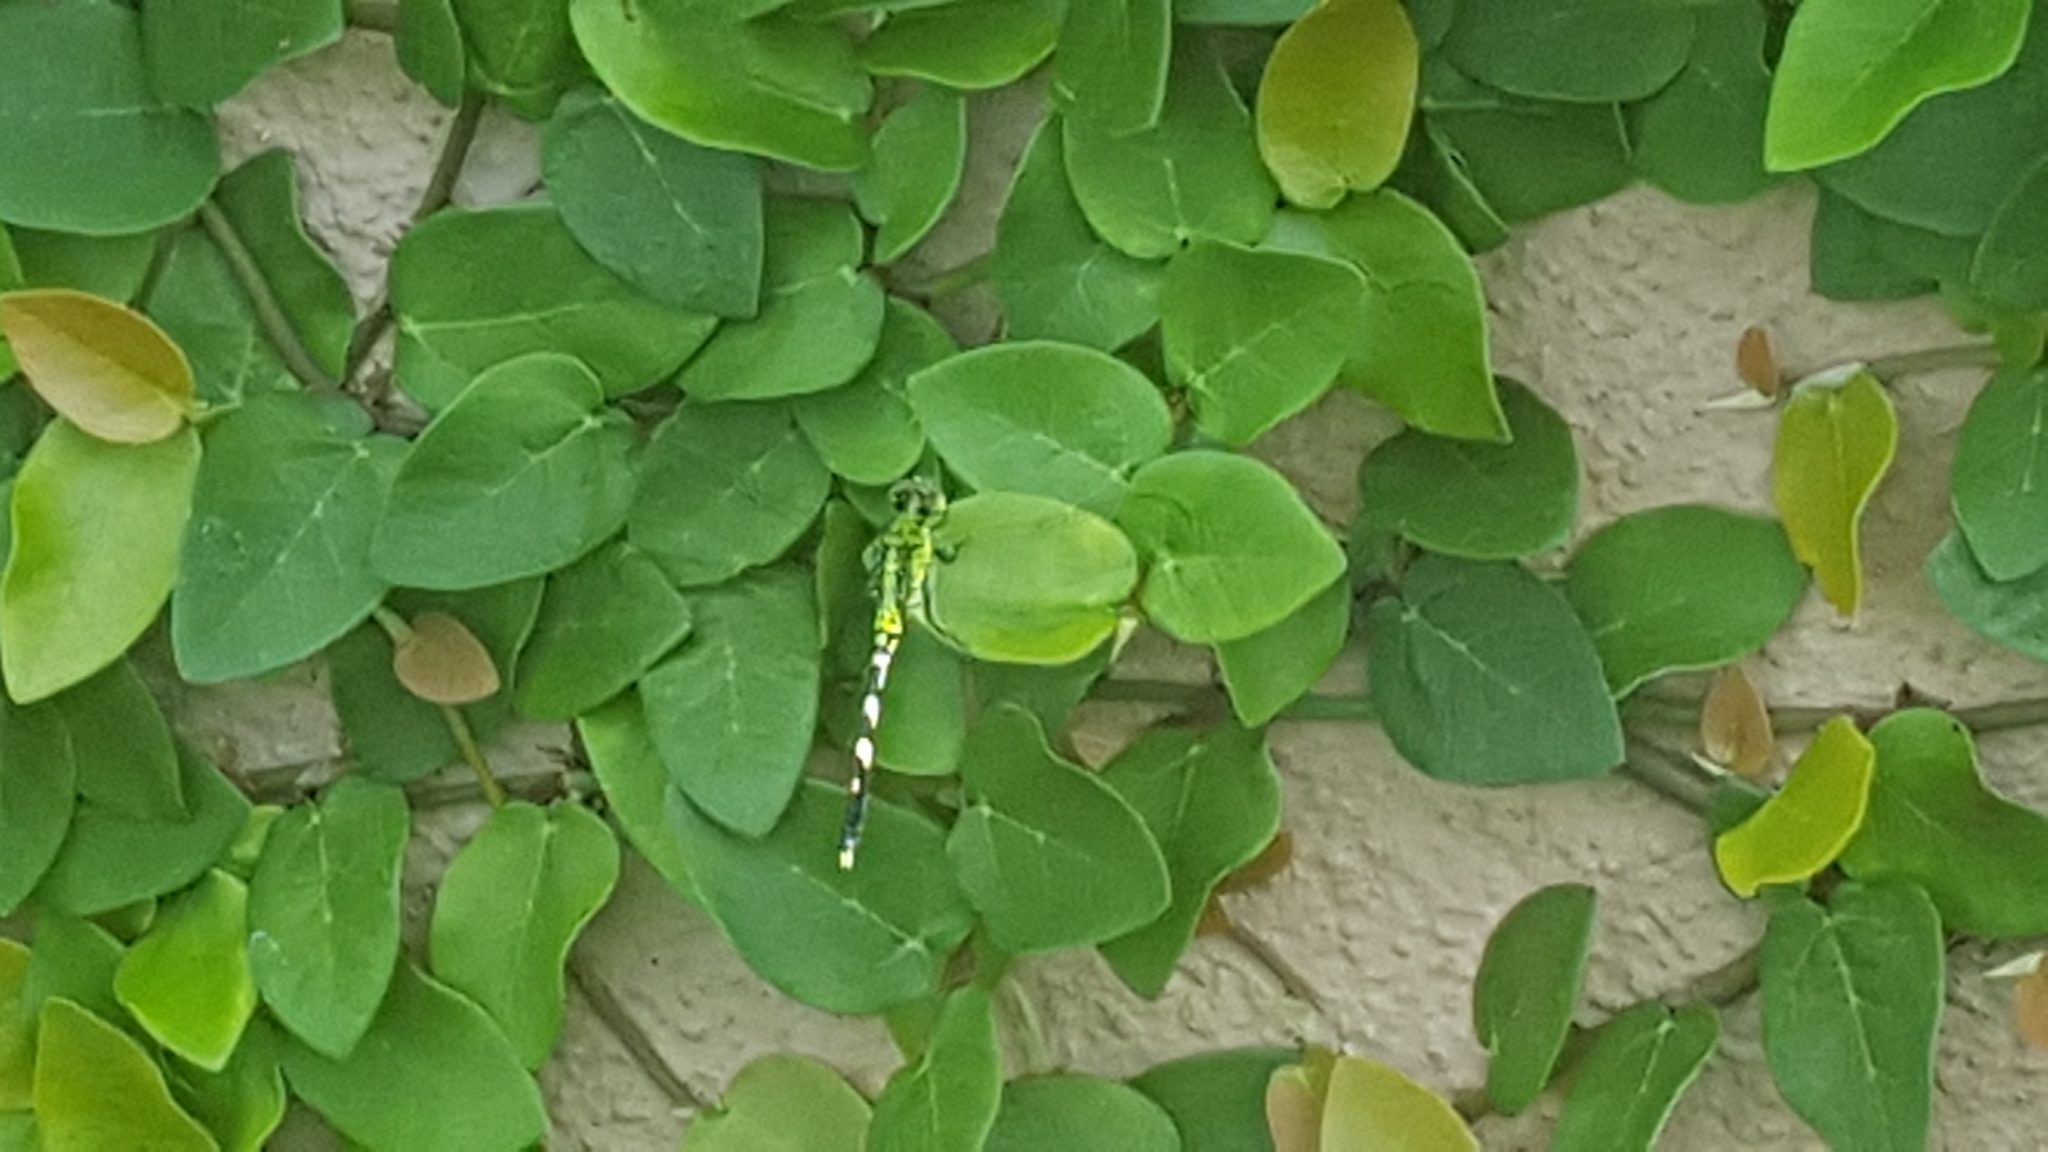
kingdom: Animalia
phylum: Arthropoda
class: Insecta
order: Odonata
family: Libellulidae
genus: Erythemis
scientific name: Erythemis simplicicollis
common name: Eastern pondhawk
